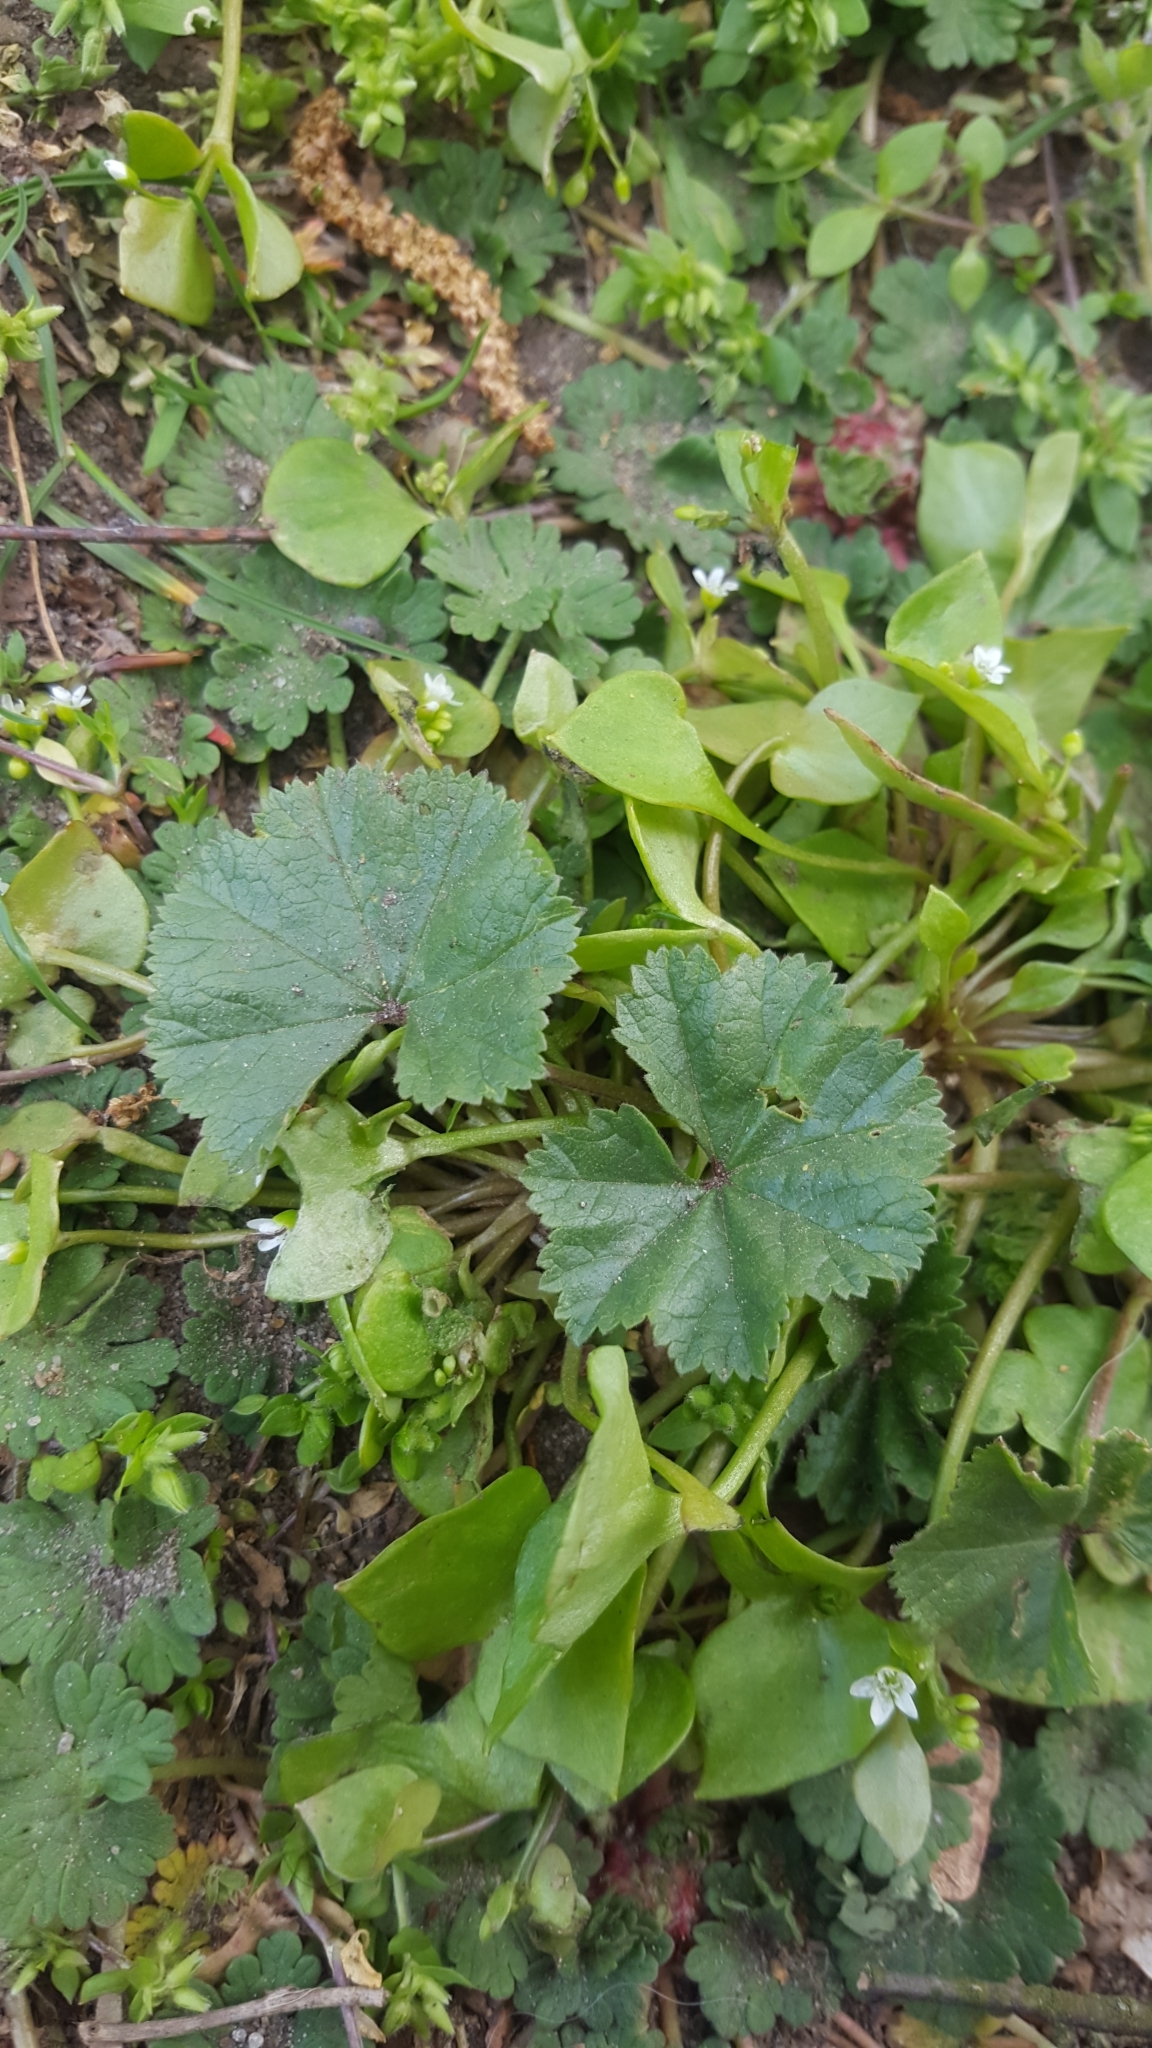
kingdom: Plantae
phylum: Tracheophyta
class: Magnoliopsida
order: Malvales
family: Malvaceae
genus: Malva
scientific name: Malva neglecta
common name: Common mallow
